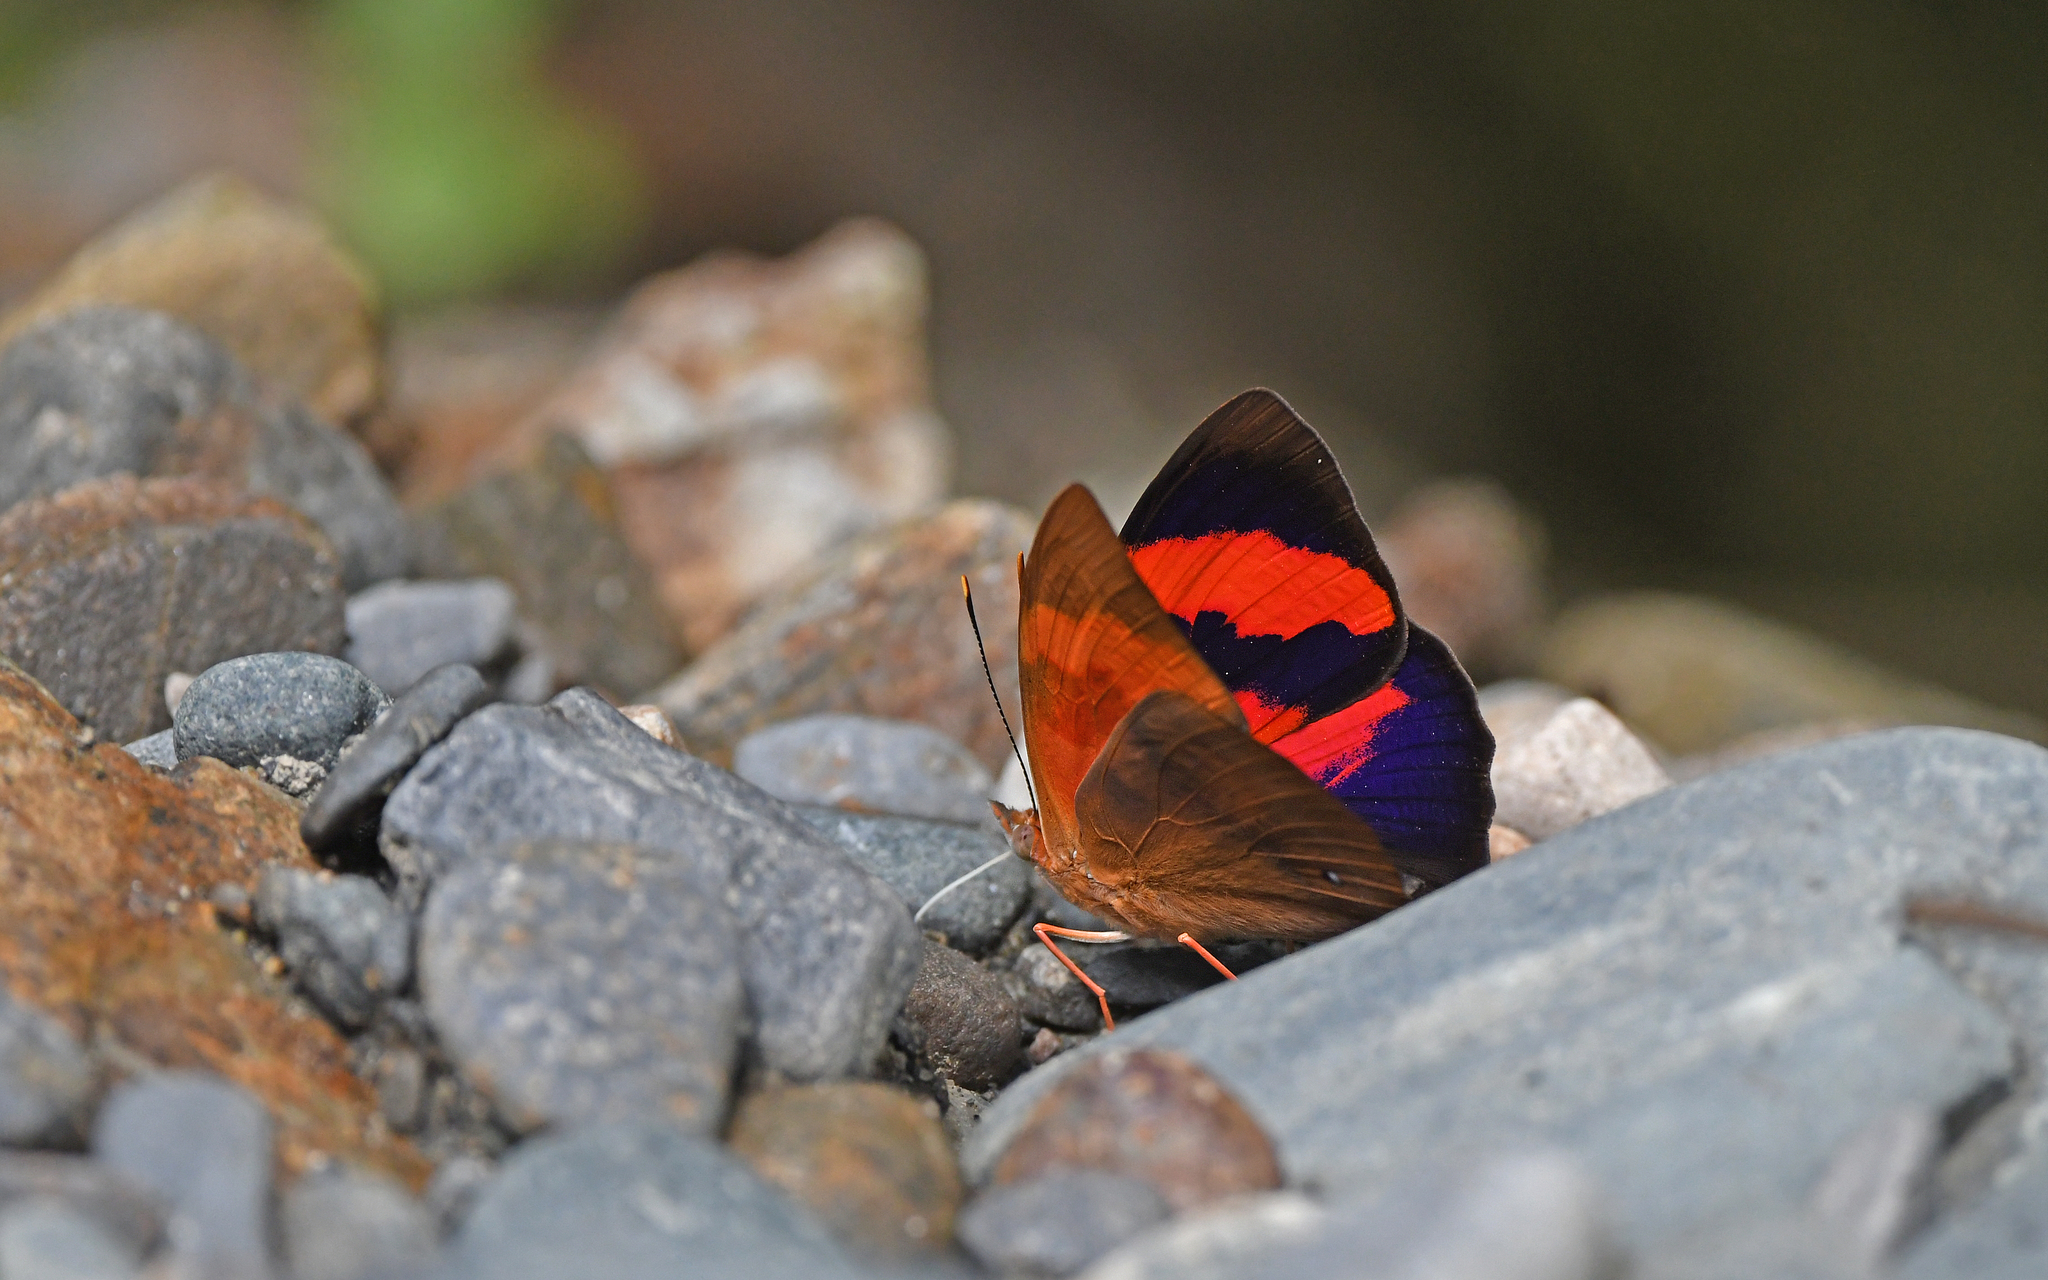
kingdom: Animalia
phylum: Arthropoda
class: Insecta
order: Lepidoptera
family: Nymphalidae
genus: Temenis
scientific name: Temenis pulchra
